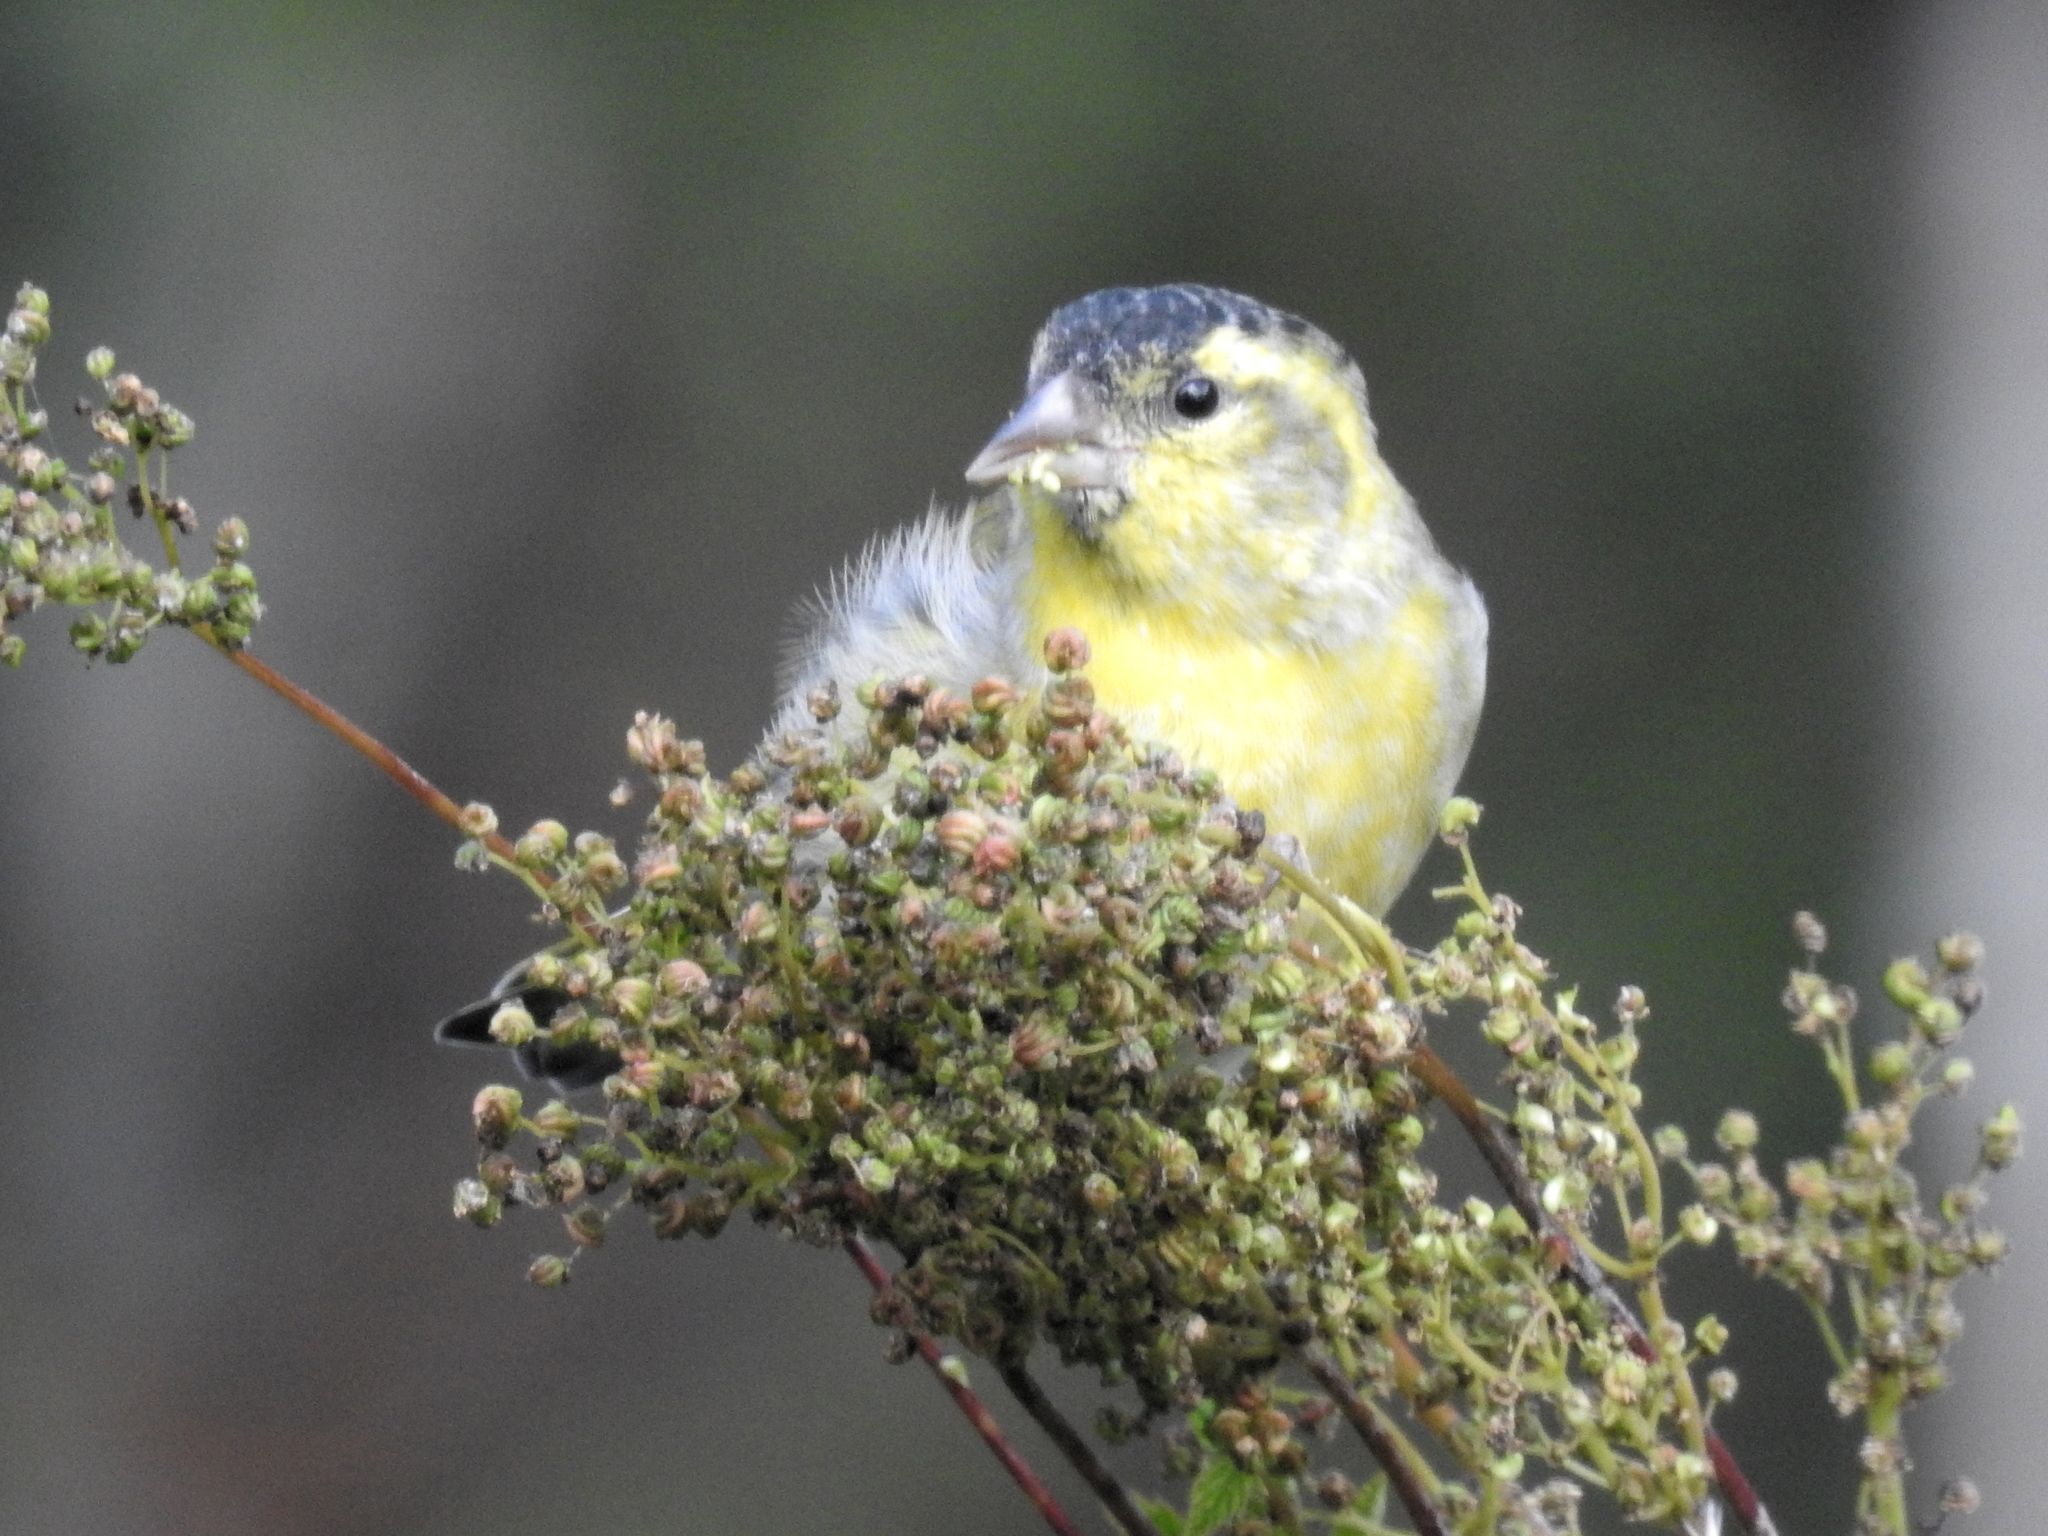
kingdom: Animalia
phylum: Chordata
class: Aves
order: Passeriformes
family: Fringillidae
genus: Spinus
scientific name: Spinus spinus
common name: Eurasian siskin
